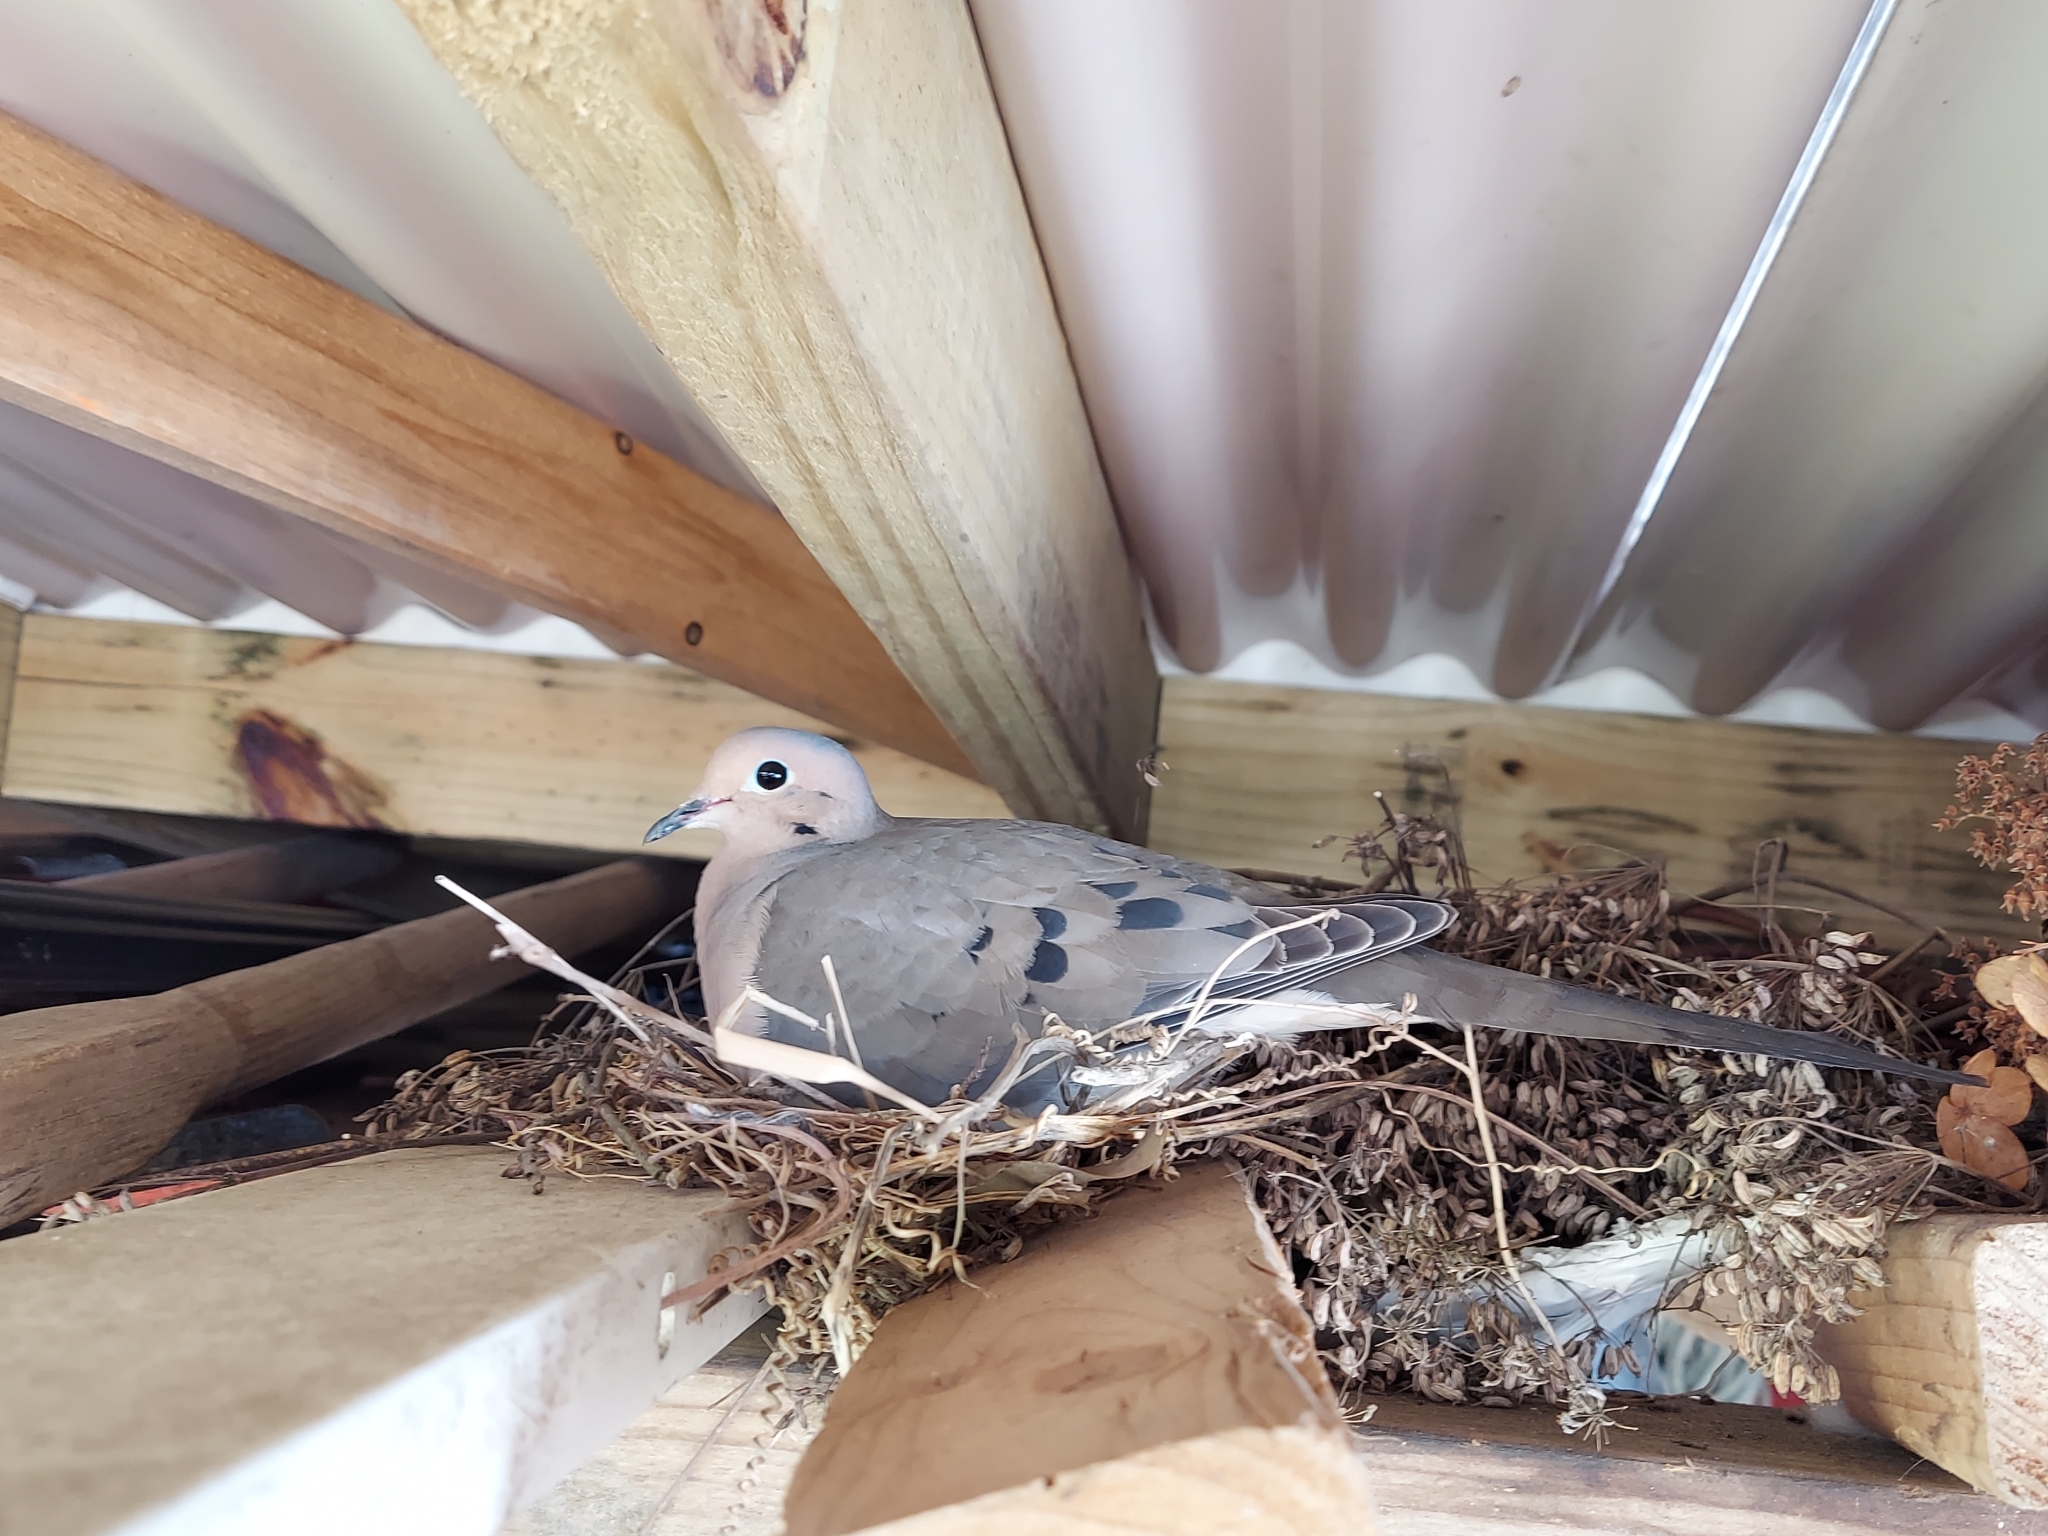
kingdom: Animalia
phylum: Chordata
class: Aves
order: Columbiformes
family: Columbidae
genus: Zenaida
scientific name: Zenaida macroura
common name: Mourning dove
